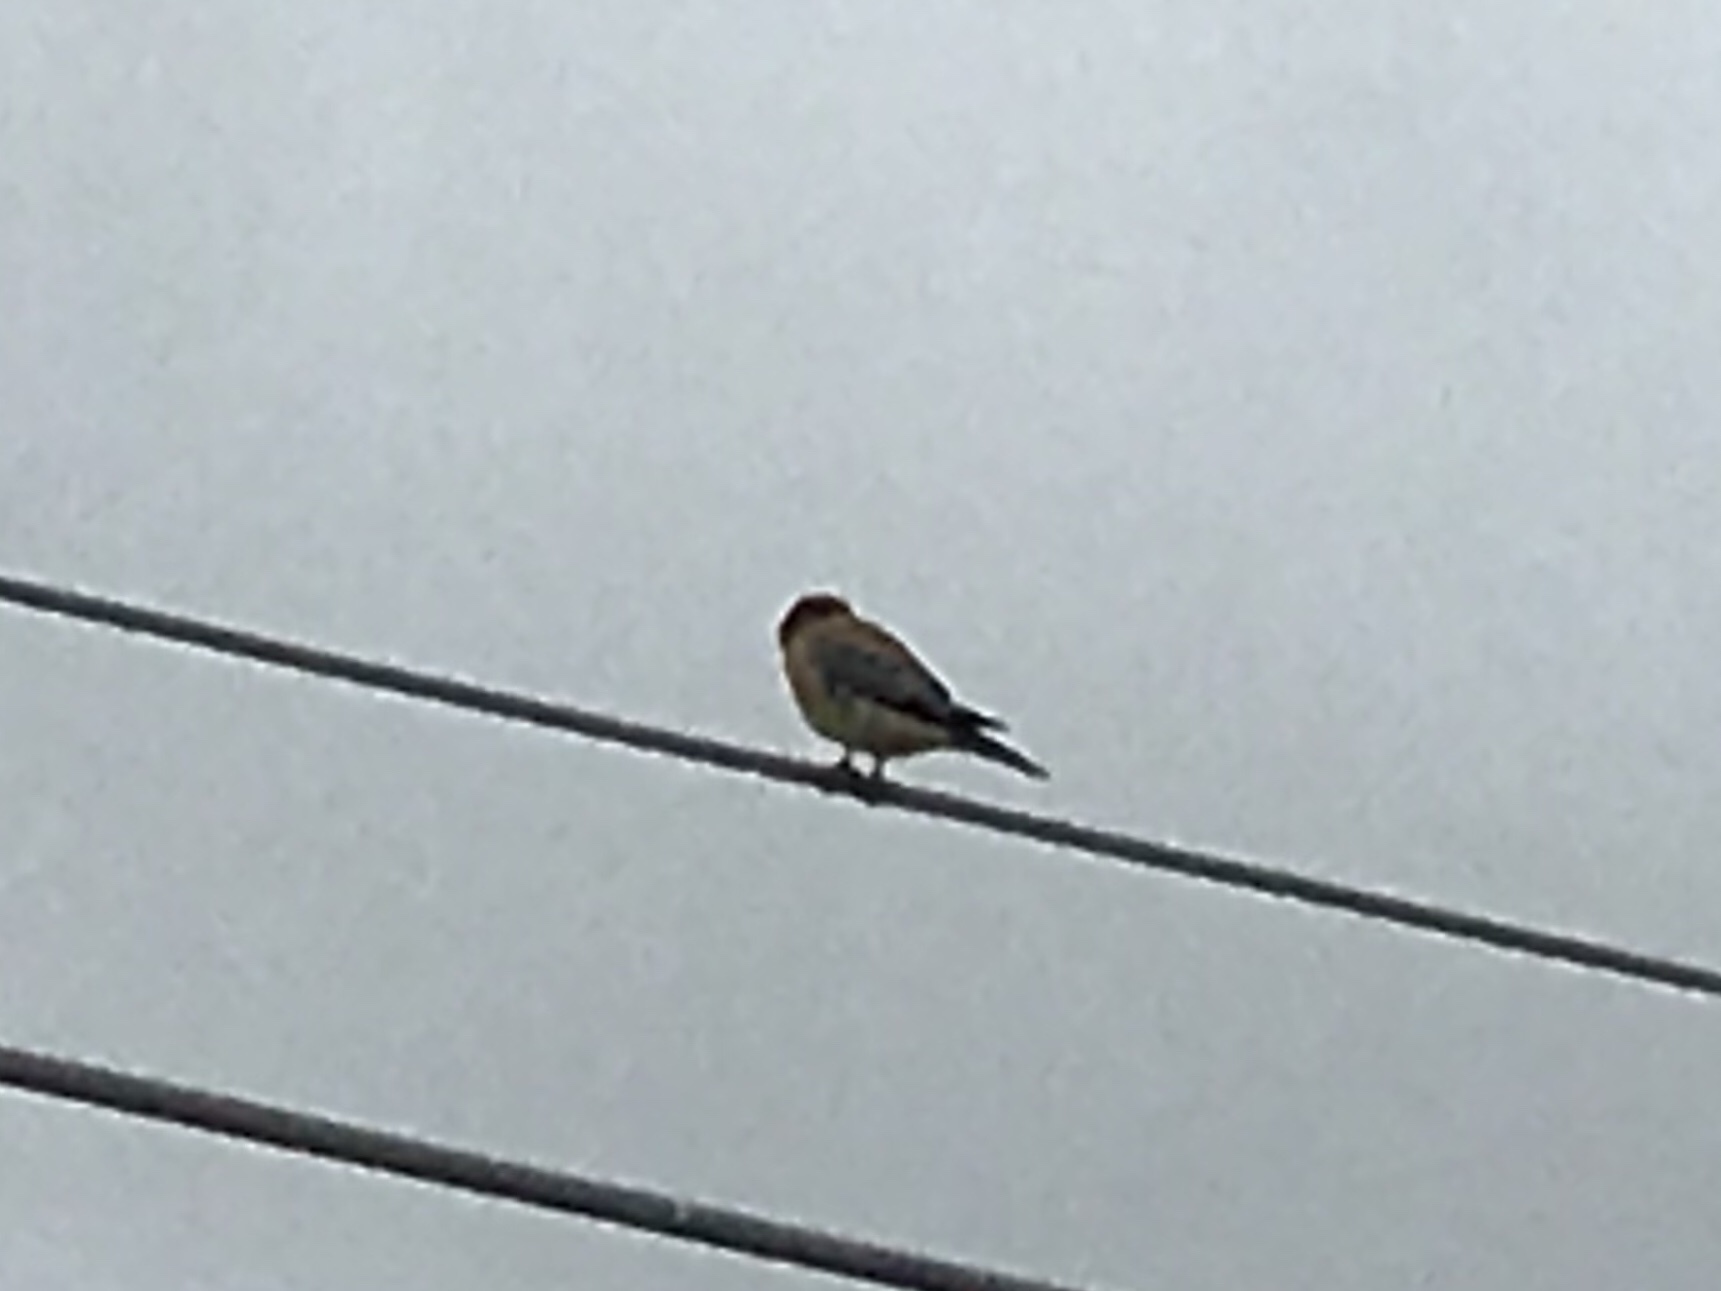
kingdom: Animalia
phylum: Chordata
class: Aves
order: Falconiformes
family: Falconidae
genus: Falco
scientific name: Falco sparverius
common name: American kestrel
